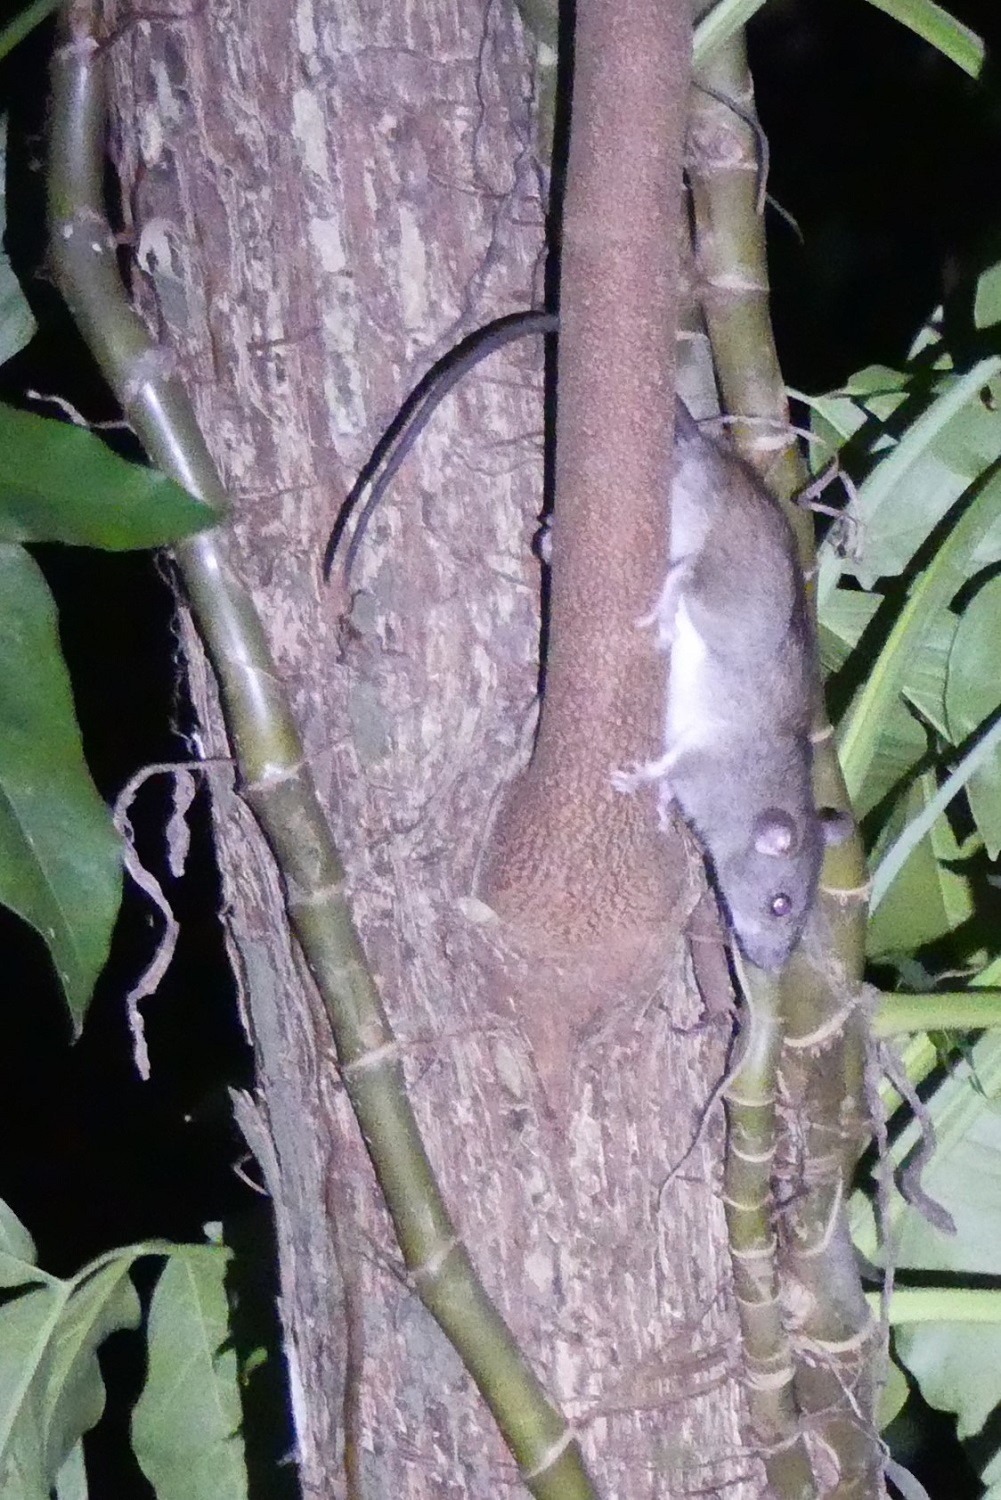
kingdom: Animalia
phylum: Chordata
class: Mammalia
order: Rodentia
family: Muridae
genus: Rattus
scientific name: Rattus rattus
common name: Black rat
